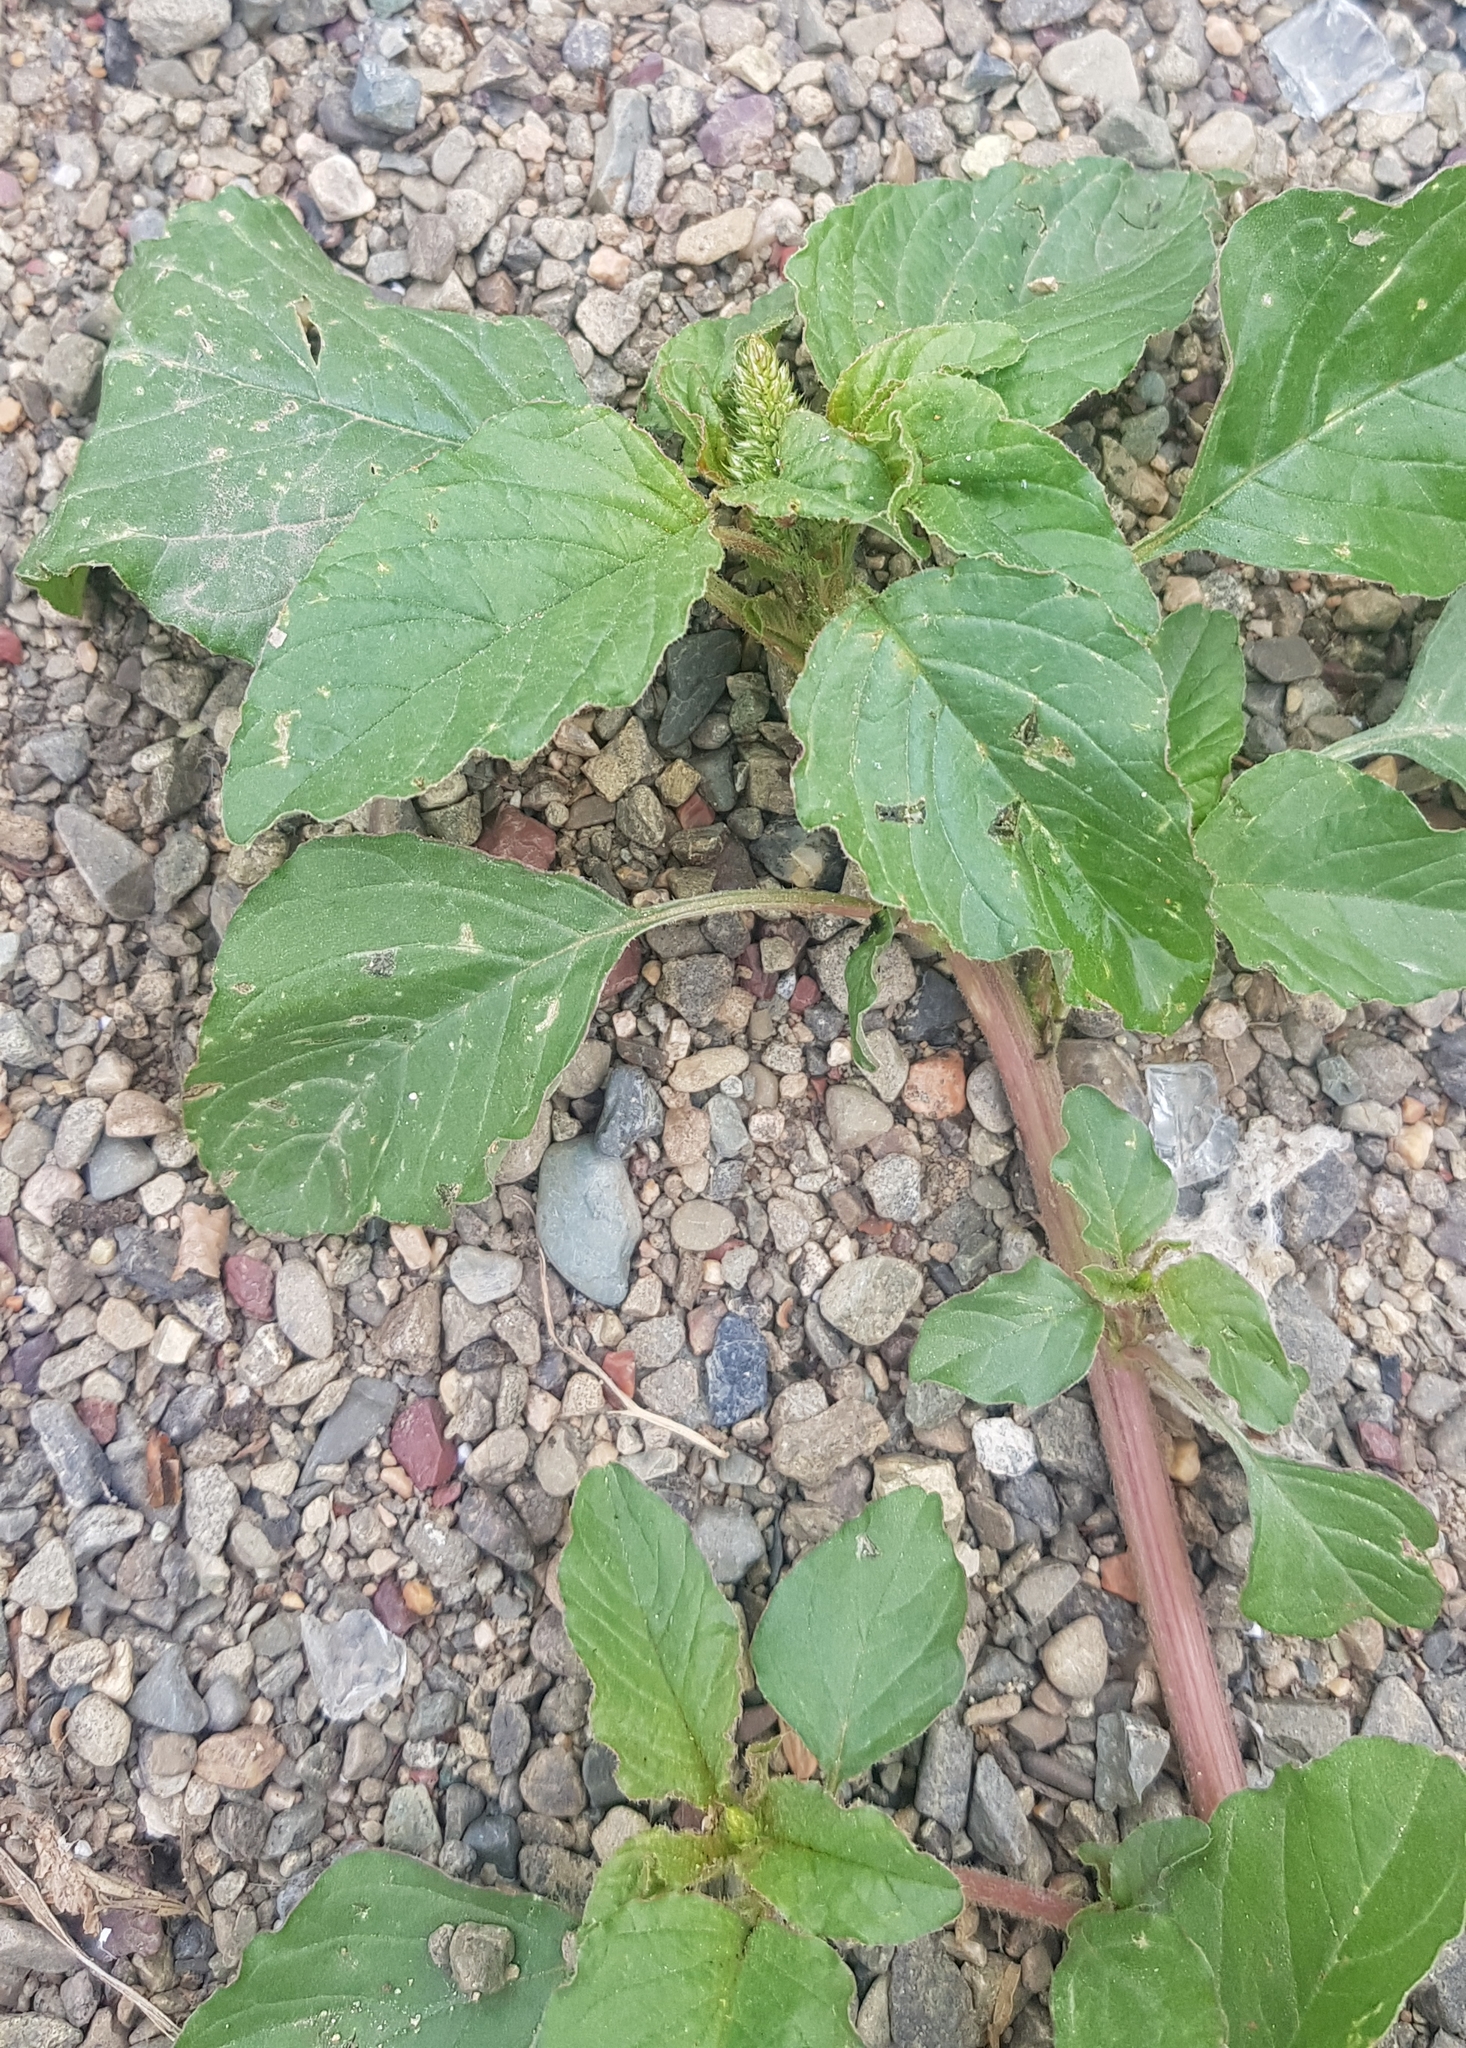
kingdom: Plantae
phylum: Tracheophyta
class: Magnoliopsida
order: Caryophyllales
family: Amaranthaceae
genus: Amaranthus
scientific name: Amaranthus retroflexus
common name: Redroot amaranth
